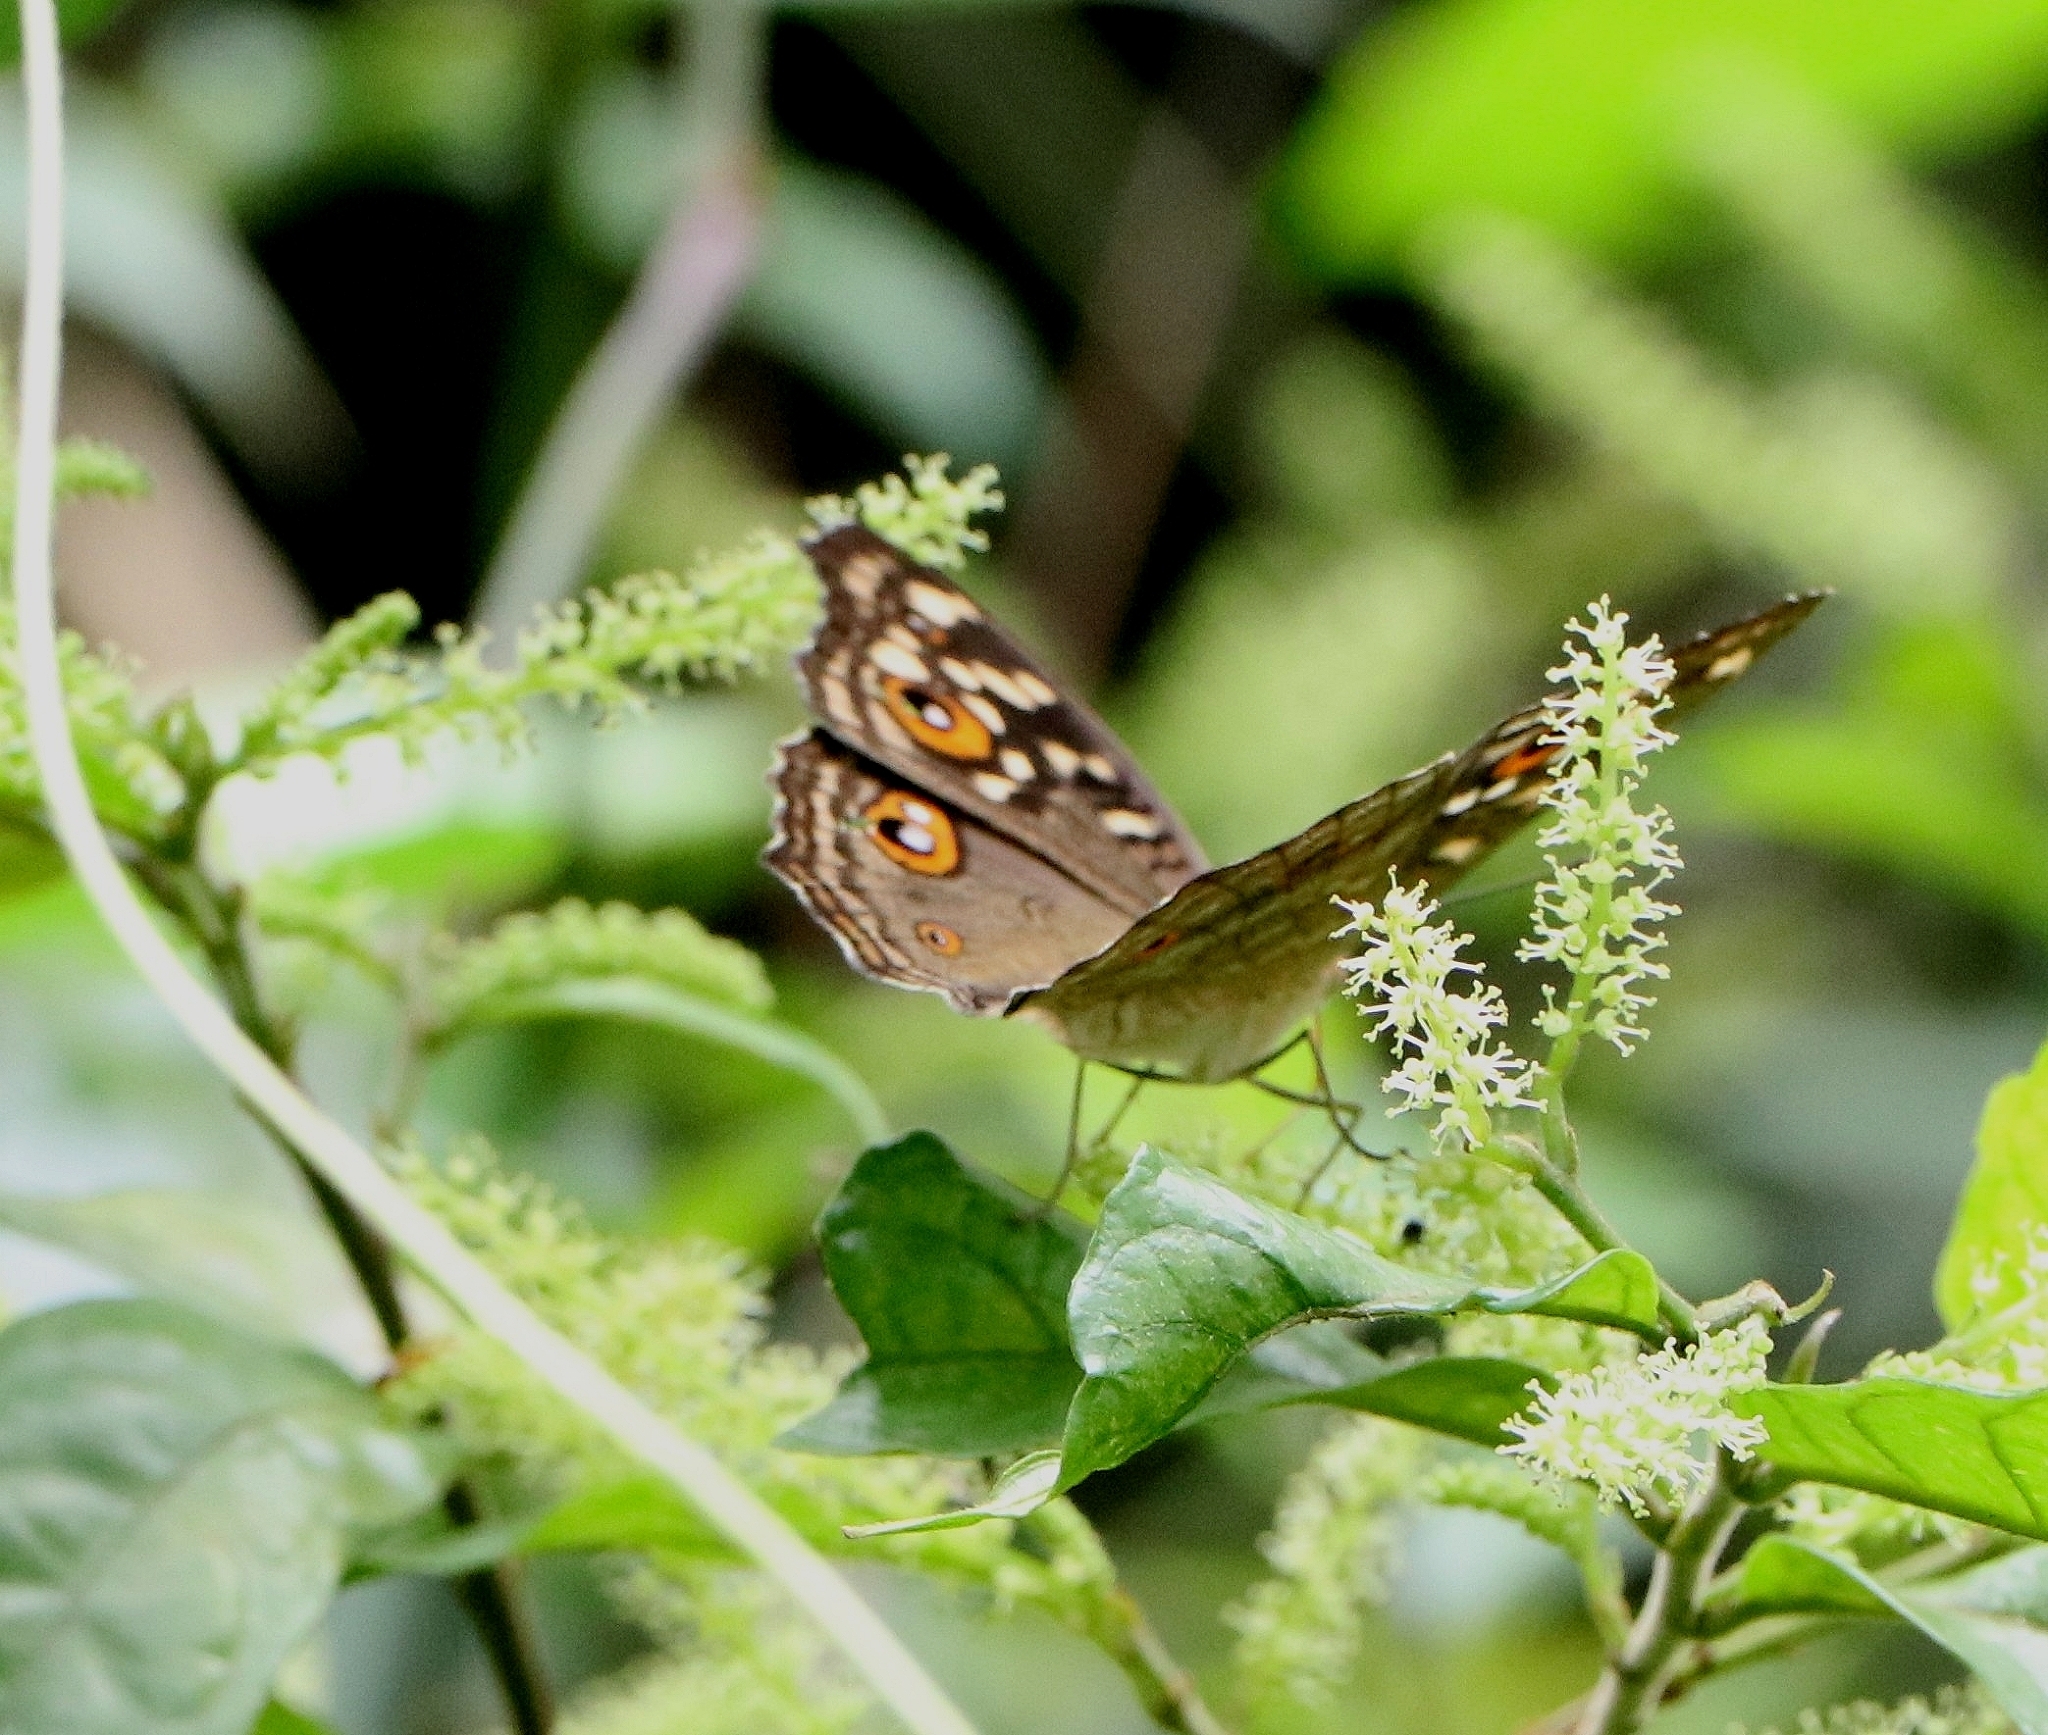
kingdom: Animalia
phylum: Arthropoda
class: Insecta
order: Lepidoptera
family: Nymphalidae
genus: Junonia
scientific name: Junonia lemonias
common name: Lemon pansy
